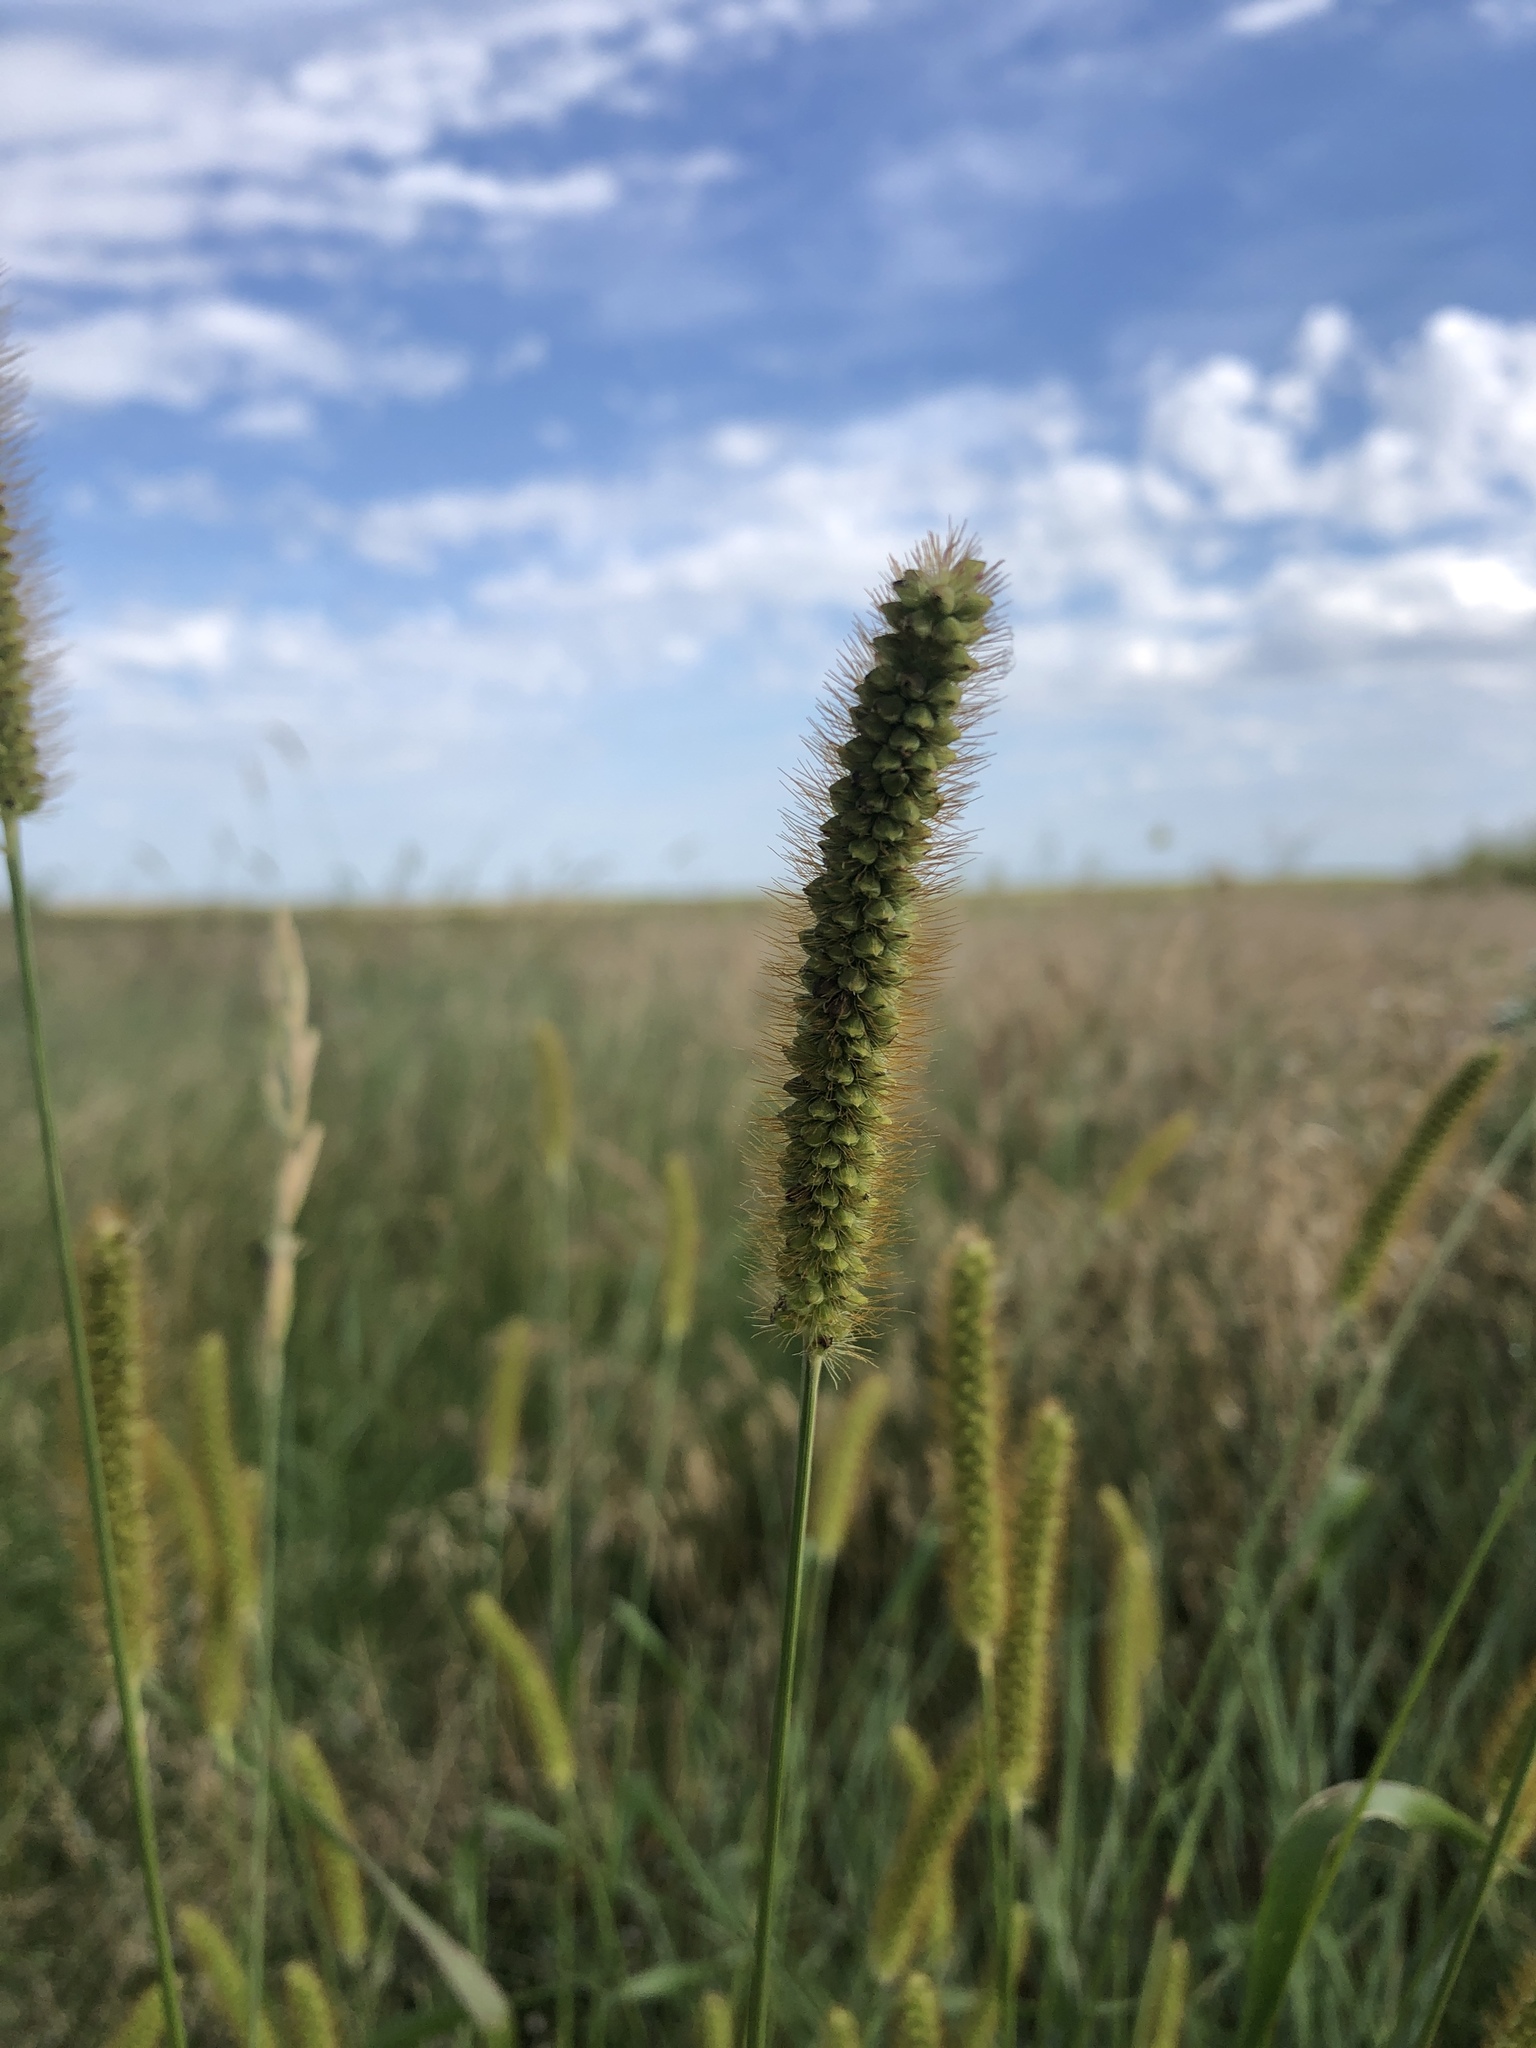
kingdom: Plantae
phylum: Tracheophyta
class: Liliopsida
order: Poales
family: Poaceae
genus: Setaria
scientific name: Setaria viridis
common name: Green bristlegrass
